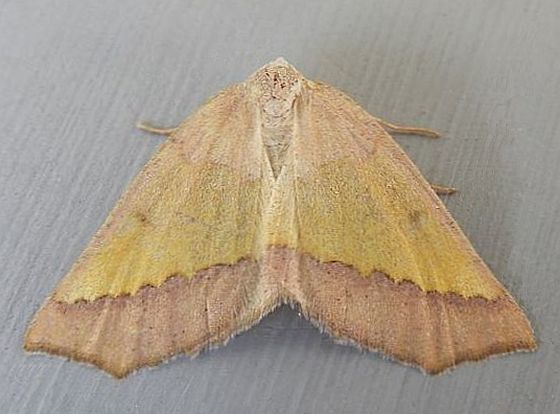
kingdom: Animalia
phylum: Arthropoda
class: Insecta
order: Lepidoptera
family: Geometridae
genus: Lychnosea
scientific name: Lychnosea helveolaria
